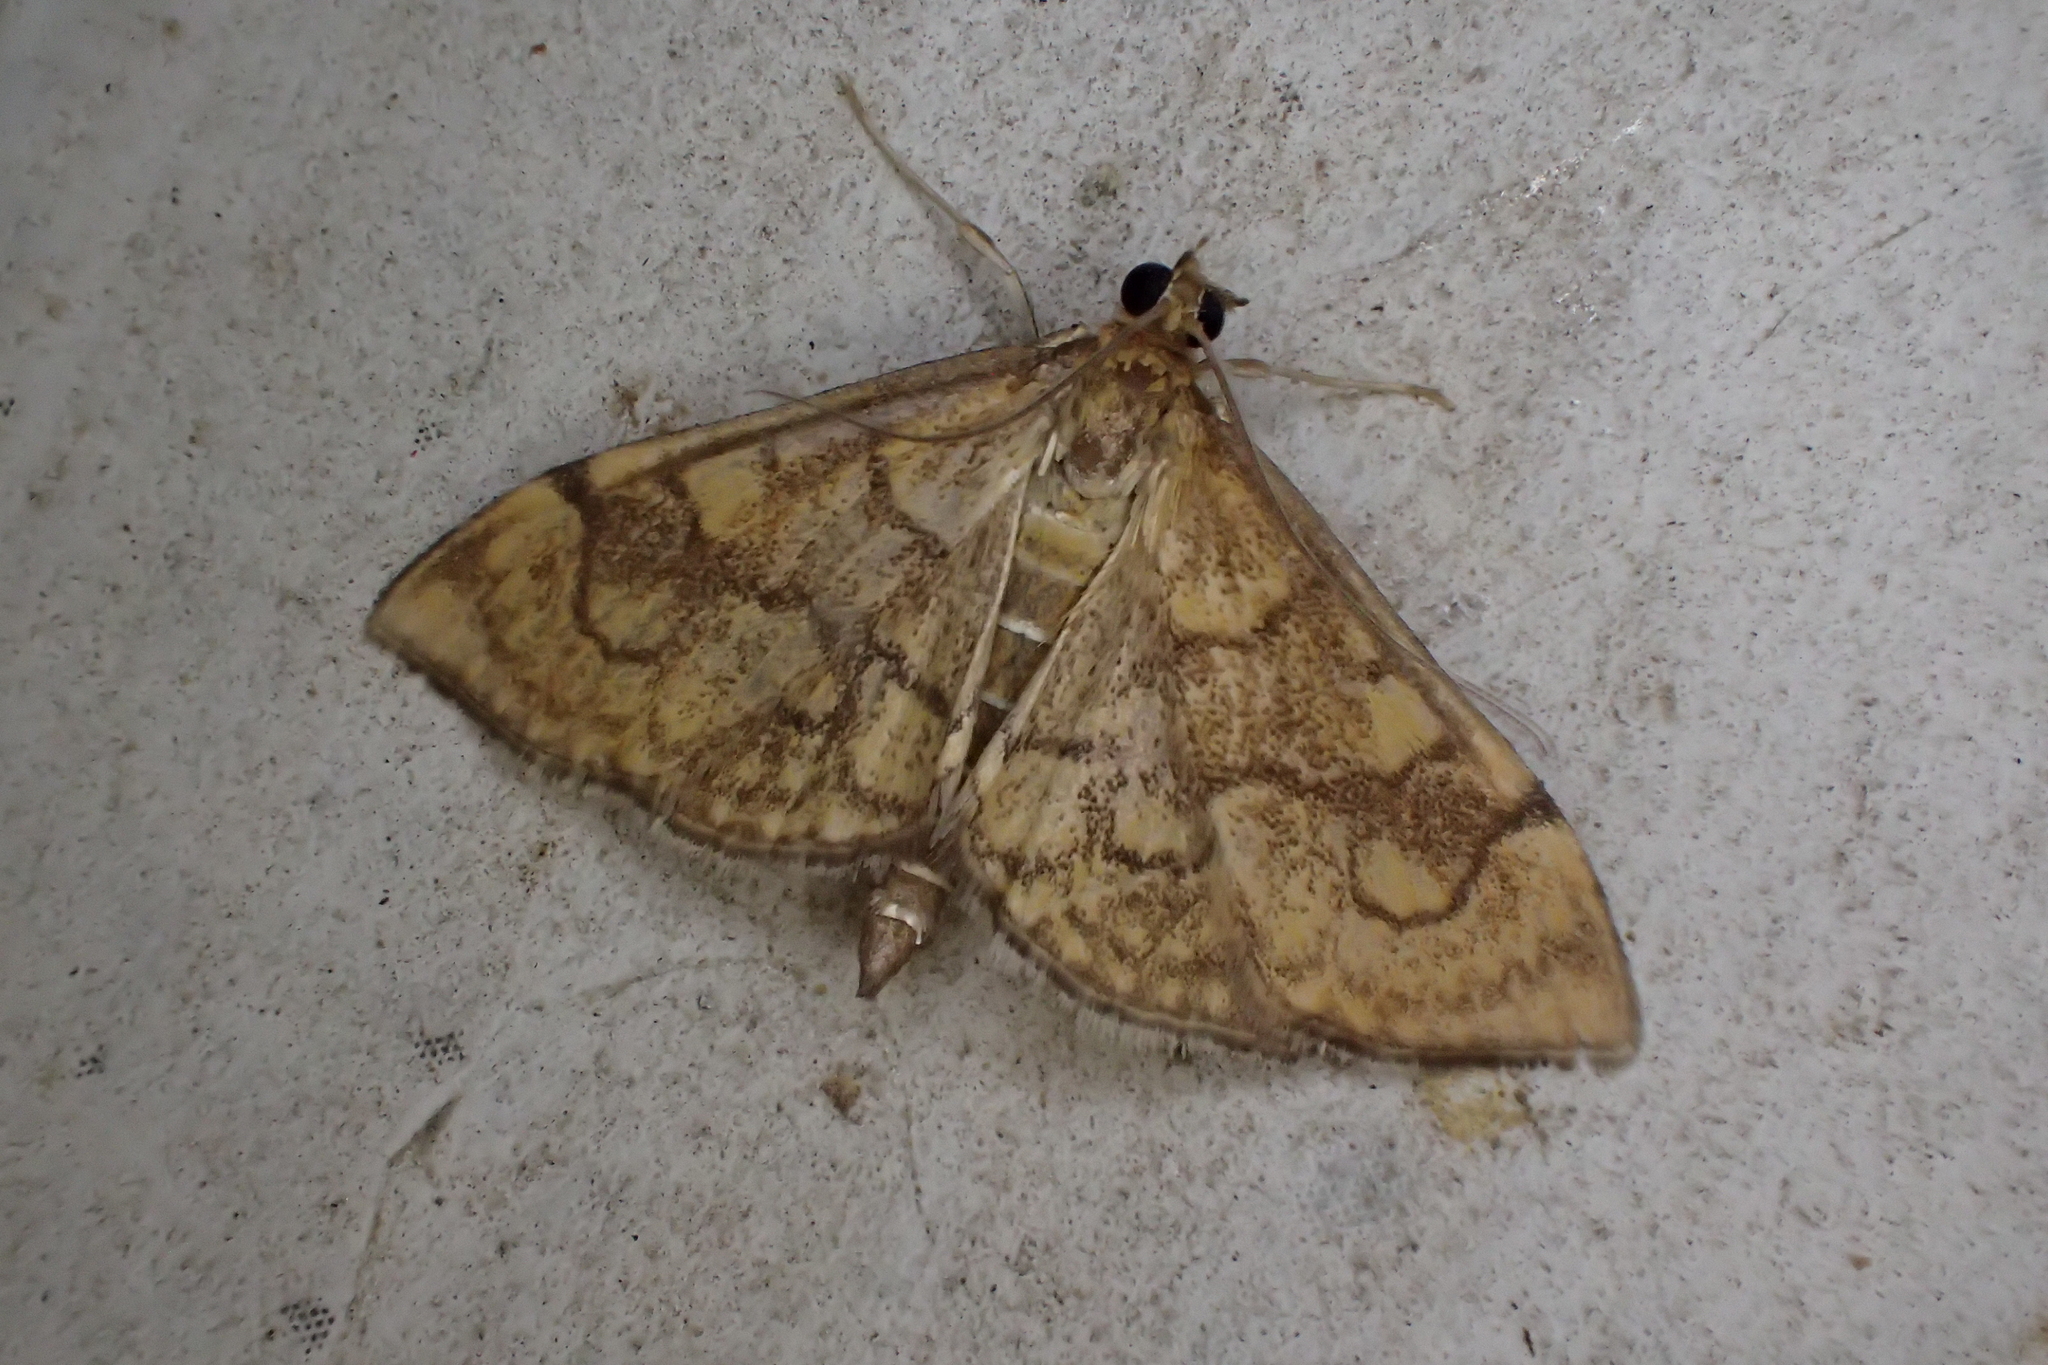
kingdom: Animalia
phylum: Arthropoda
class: Insecta
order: Lepidoptera
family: Crambidae
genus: Anania
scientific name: Anania verbascalis
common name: Golden pearl
